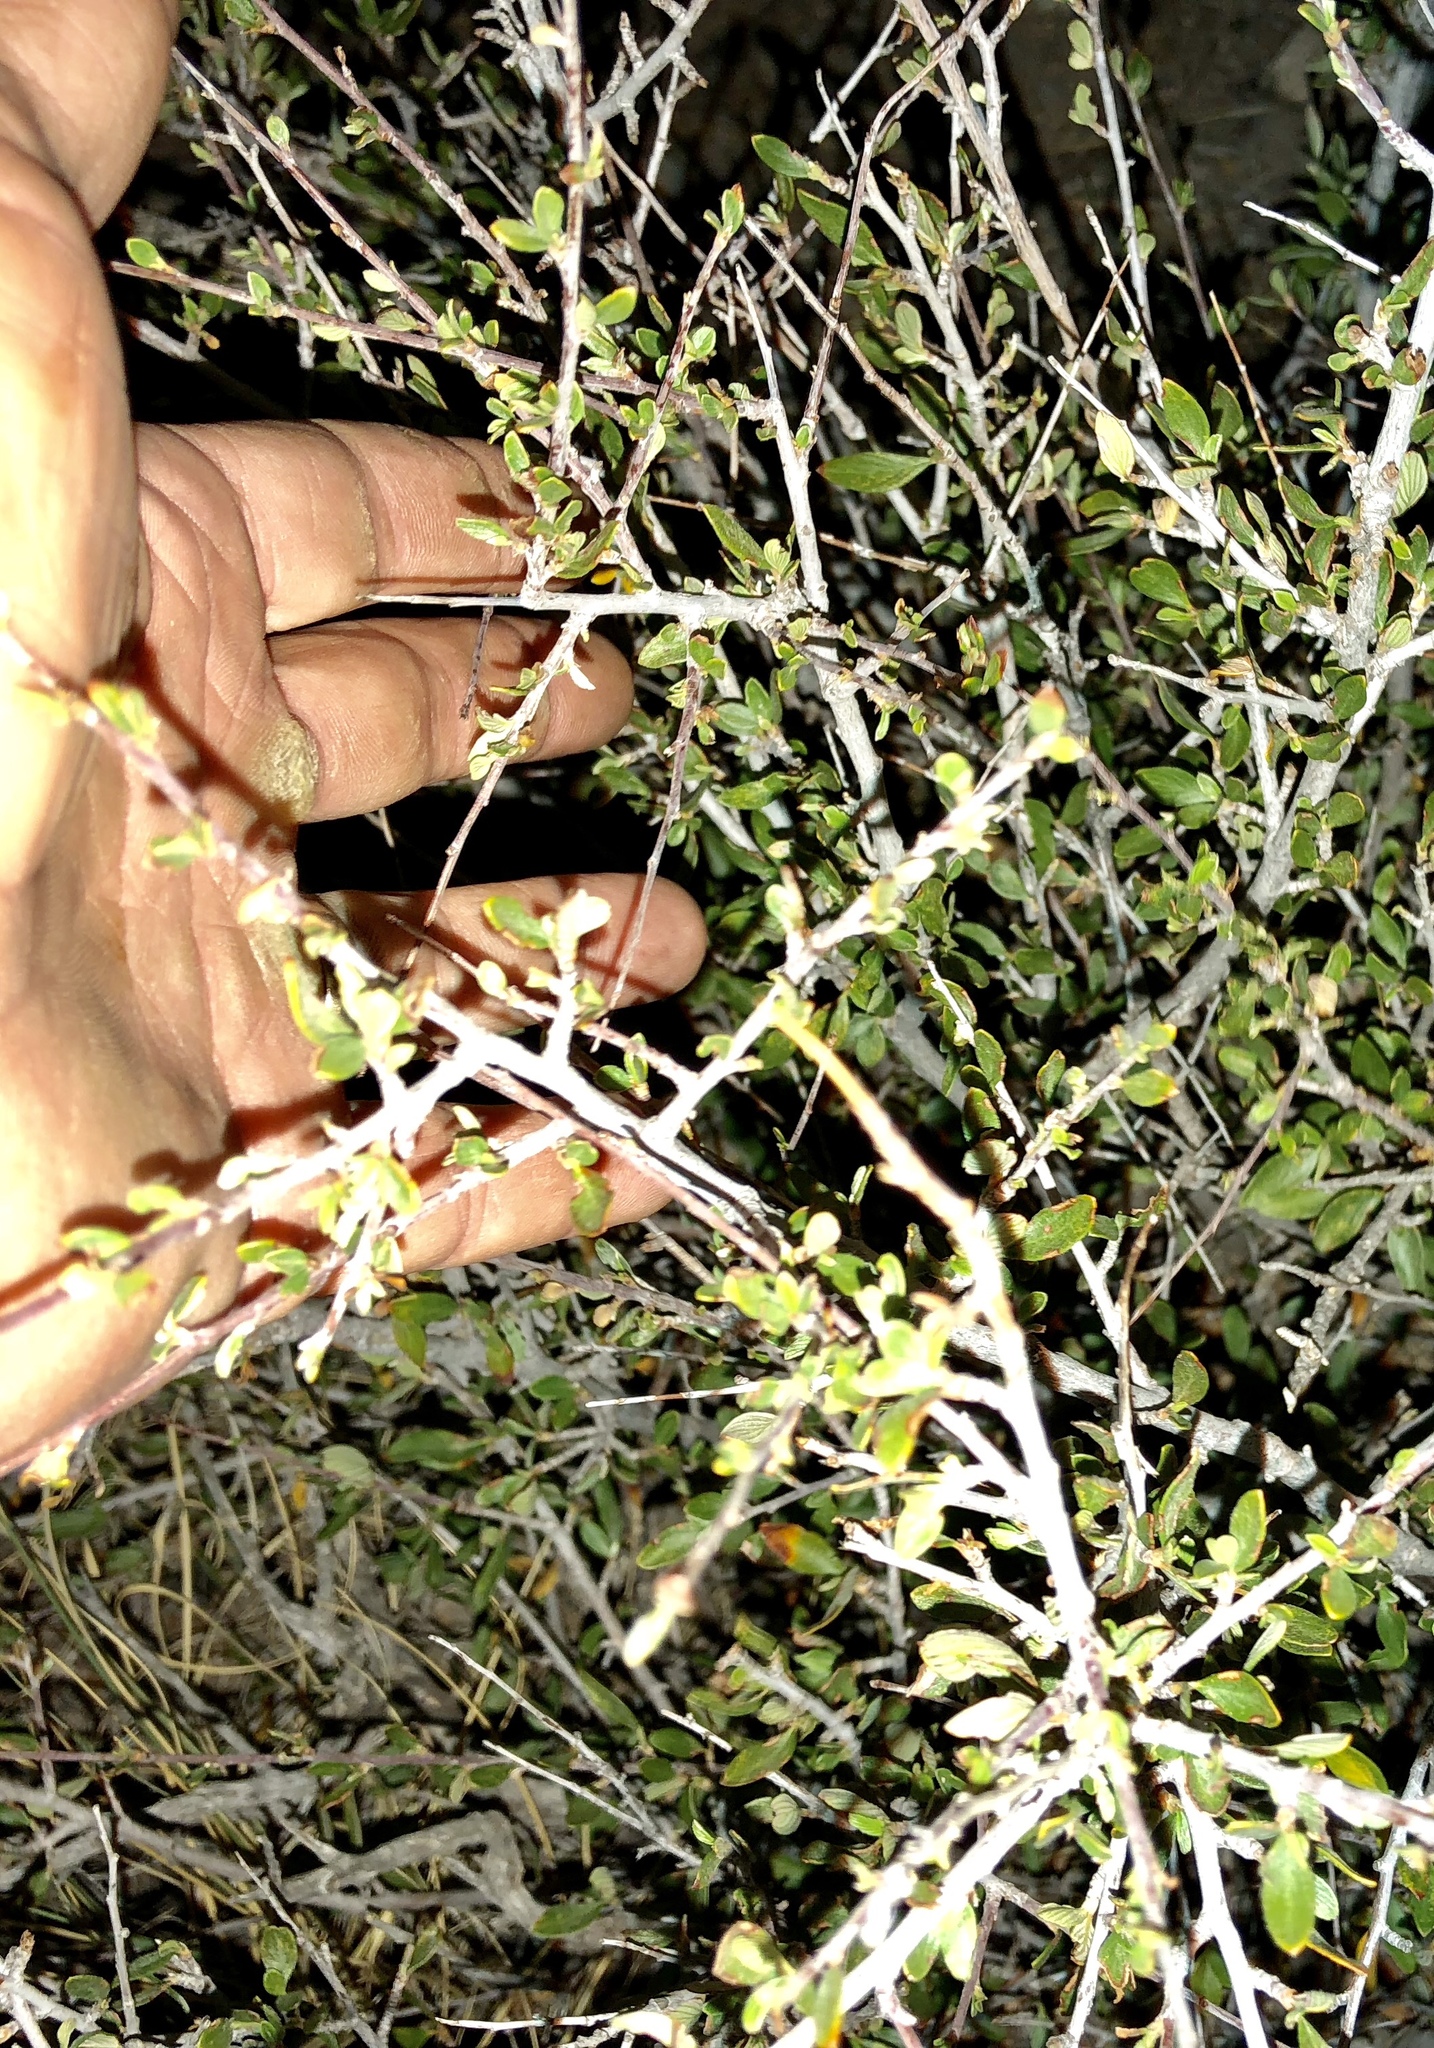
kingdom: Plantae
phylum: Tracheophyta
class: Magnoliopsida
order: Rosales
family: Rosaceae
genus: Cercocarpus
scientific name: Cercocarpus breviflorus
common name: Wright's mountain-mahogany
